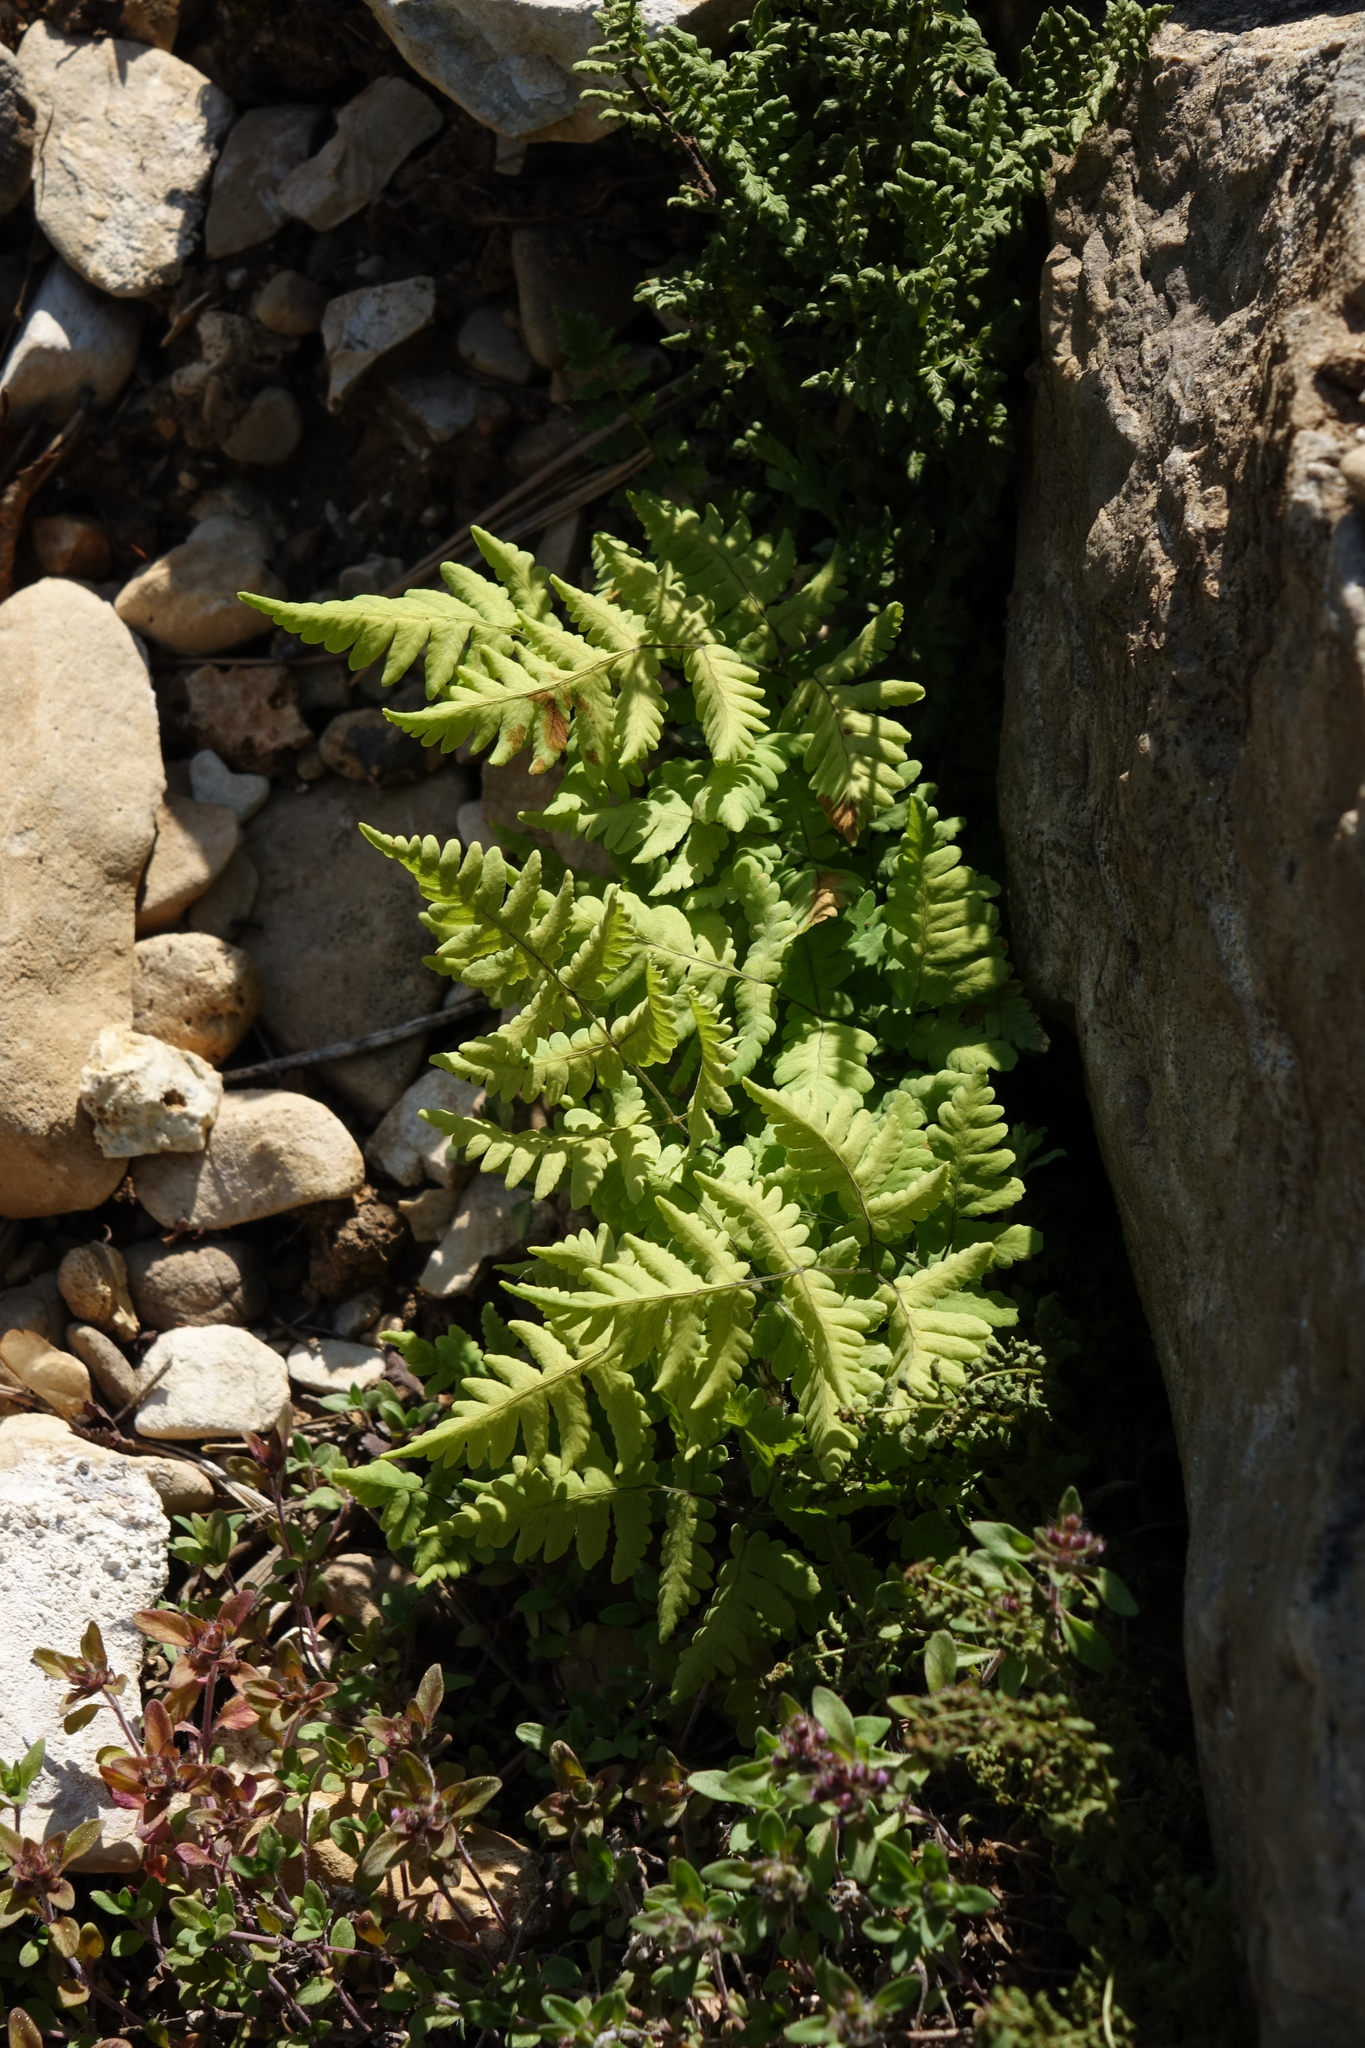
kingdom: Plantae
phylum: Tracheophyta
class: Polypodiopsida
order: Polypodiales
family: Cystopteridaceae
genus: Gymnocarpium
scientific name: Gymnocarpium jessoense
